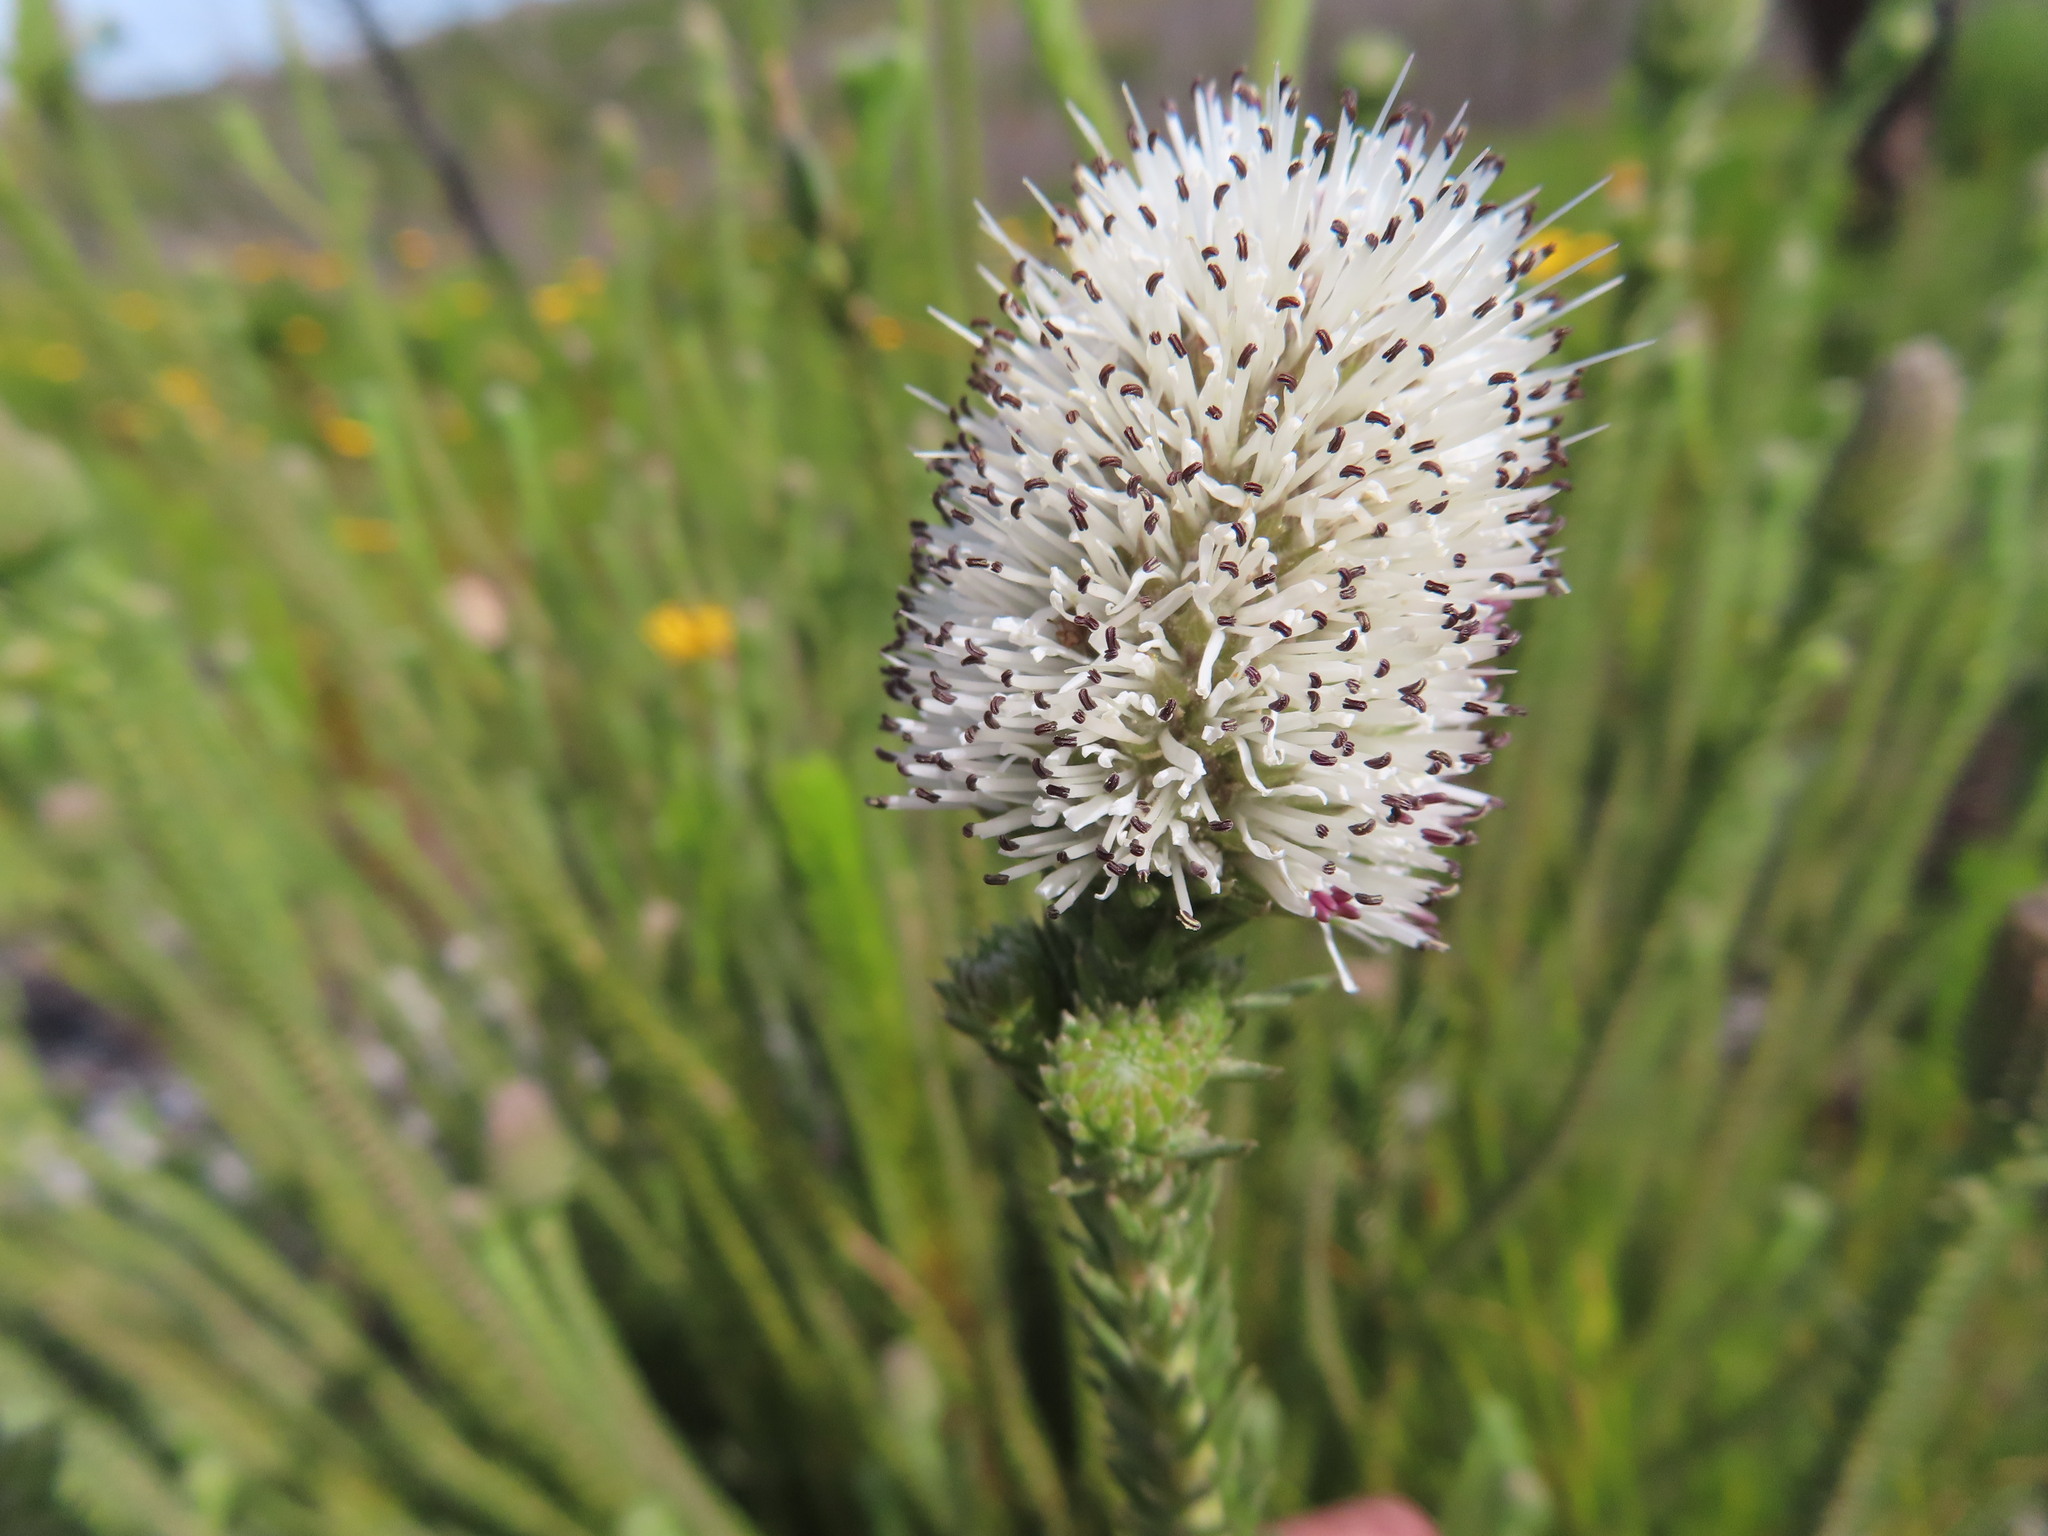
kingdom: Plantae
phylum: Tracheophyta
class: Magnoliopsida
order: Lamiales
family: Stilbaceae
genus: Stilbe
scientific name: Stilbe albiflora
